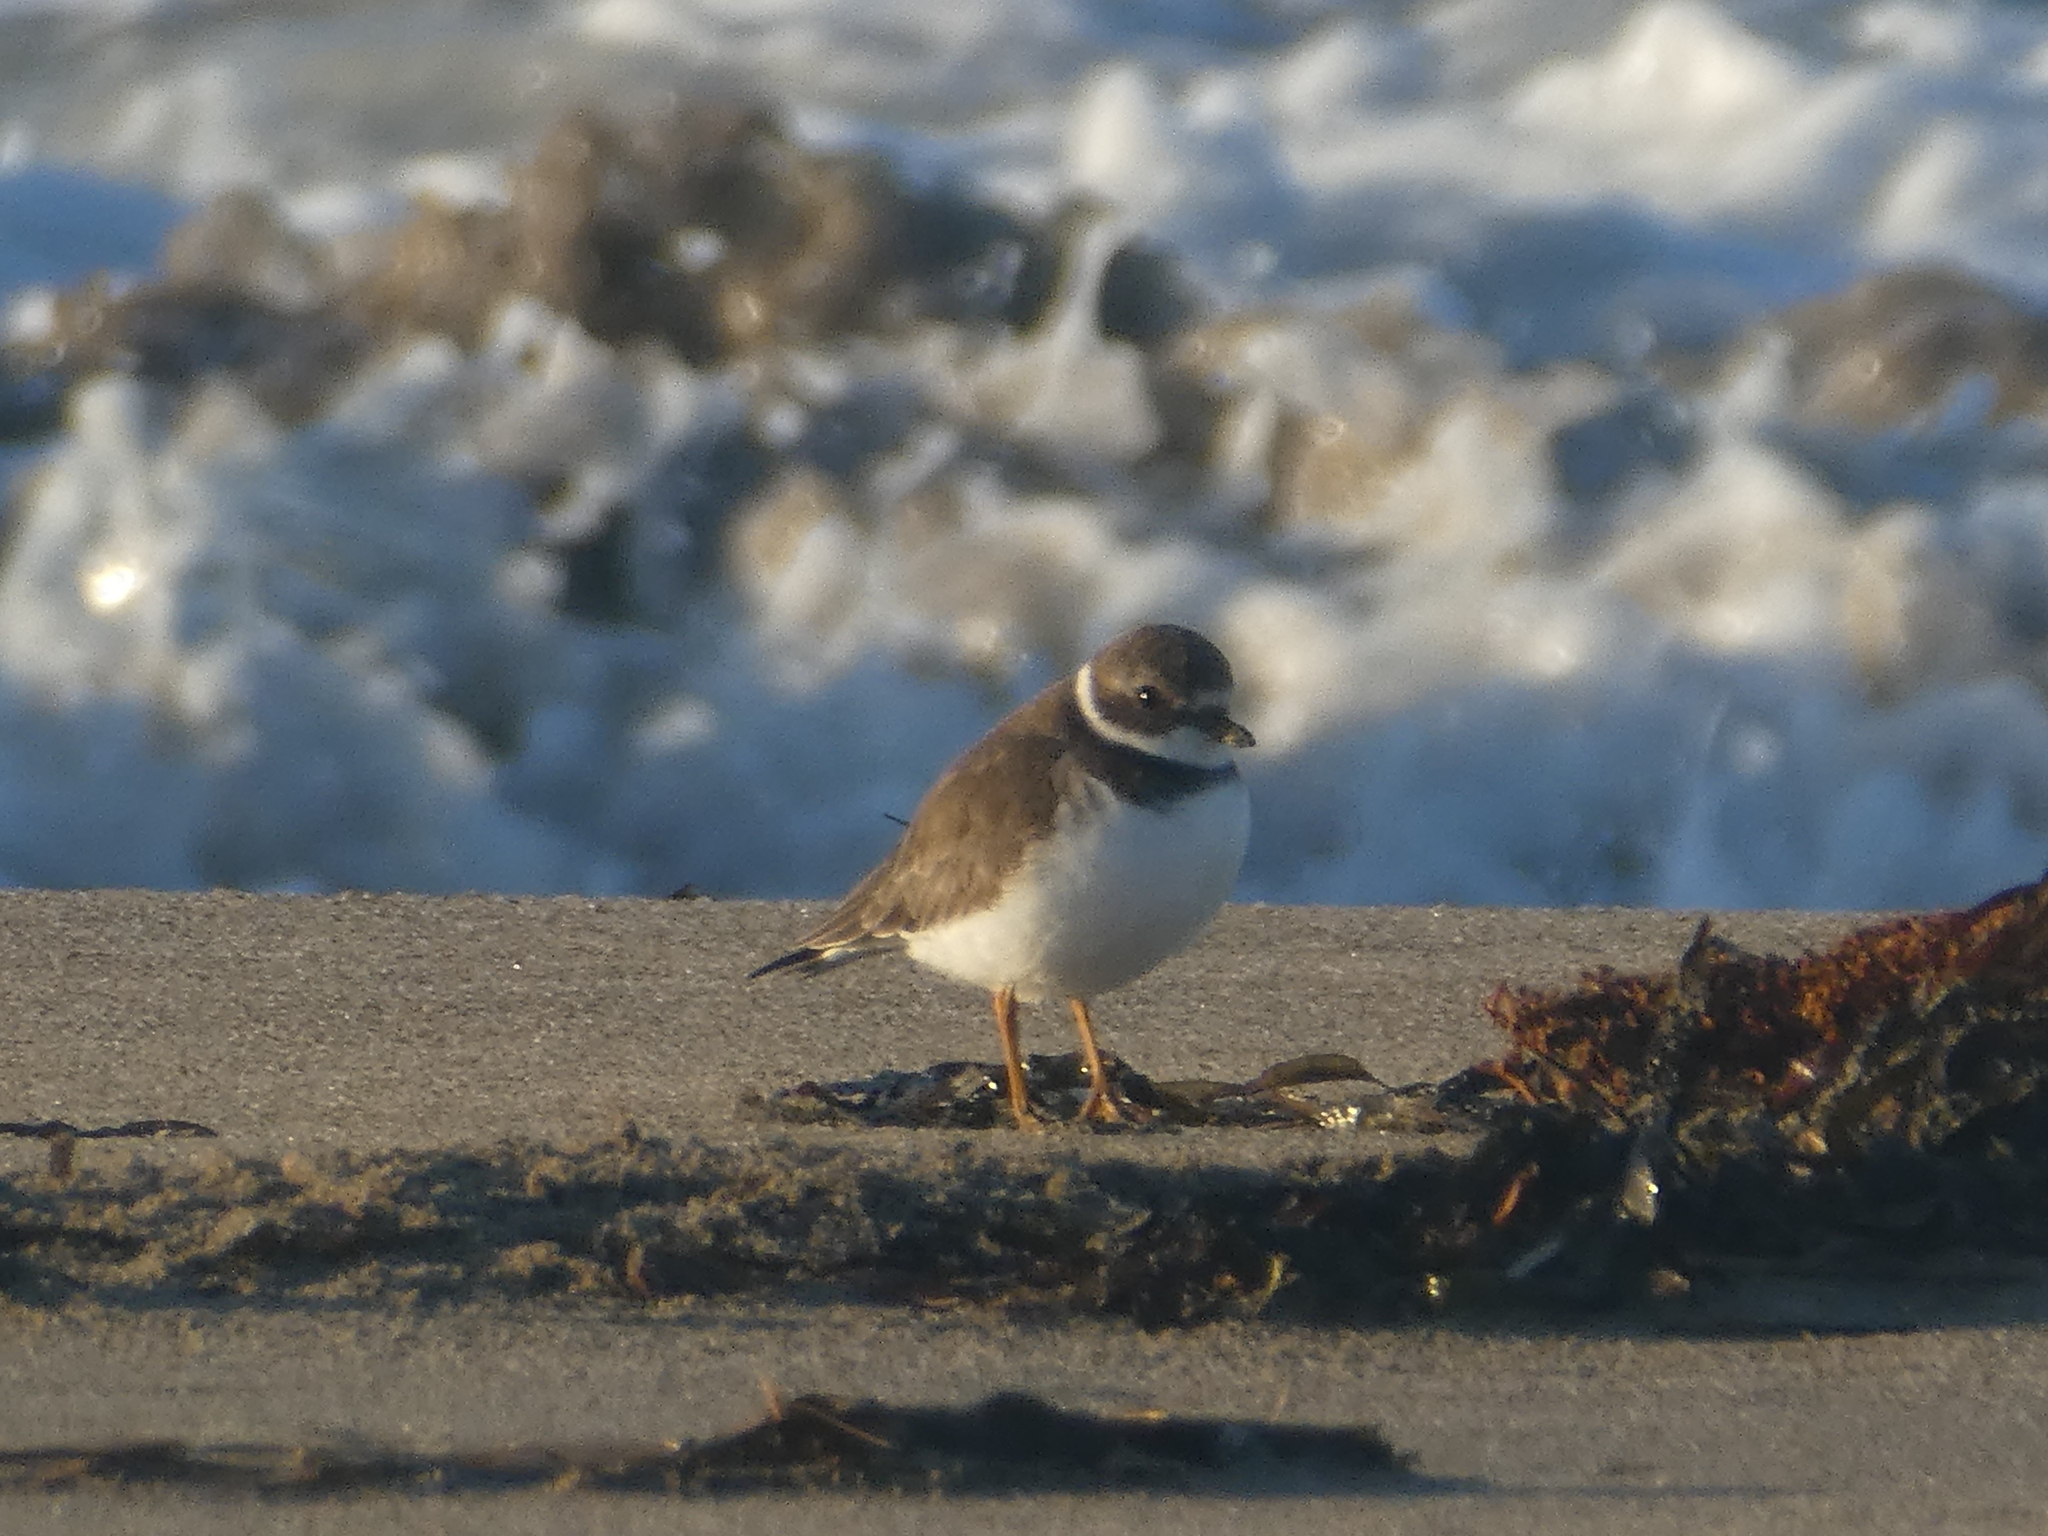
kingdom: Animalia
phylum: Chordata
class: Aves
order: Charadriiformes
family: Charadriidae
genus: Charadrius
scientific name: Charadrius semipalmatus
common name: Semipalmated plover
